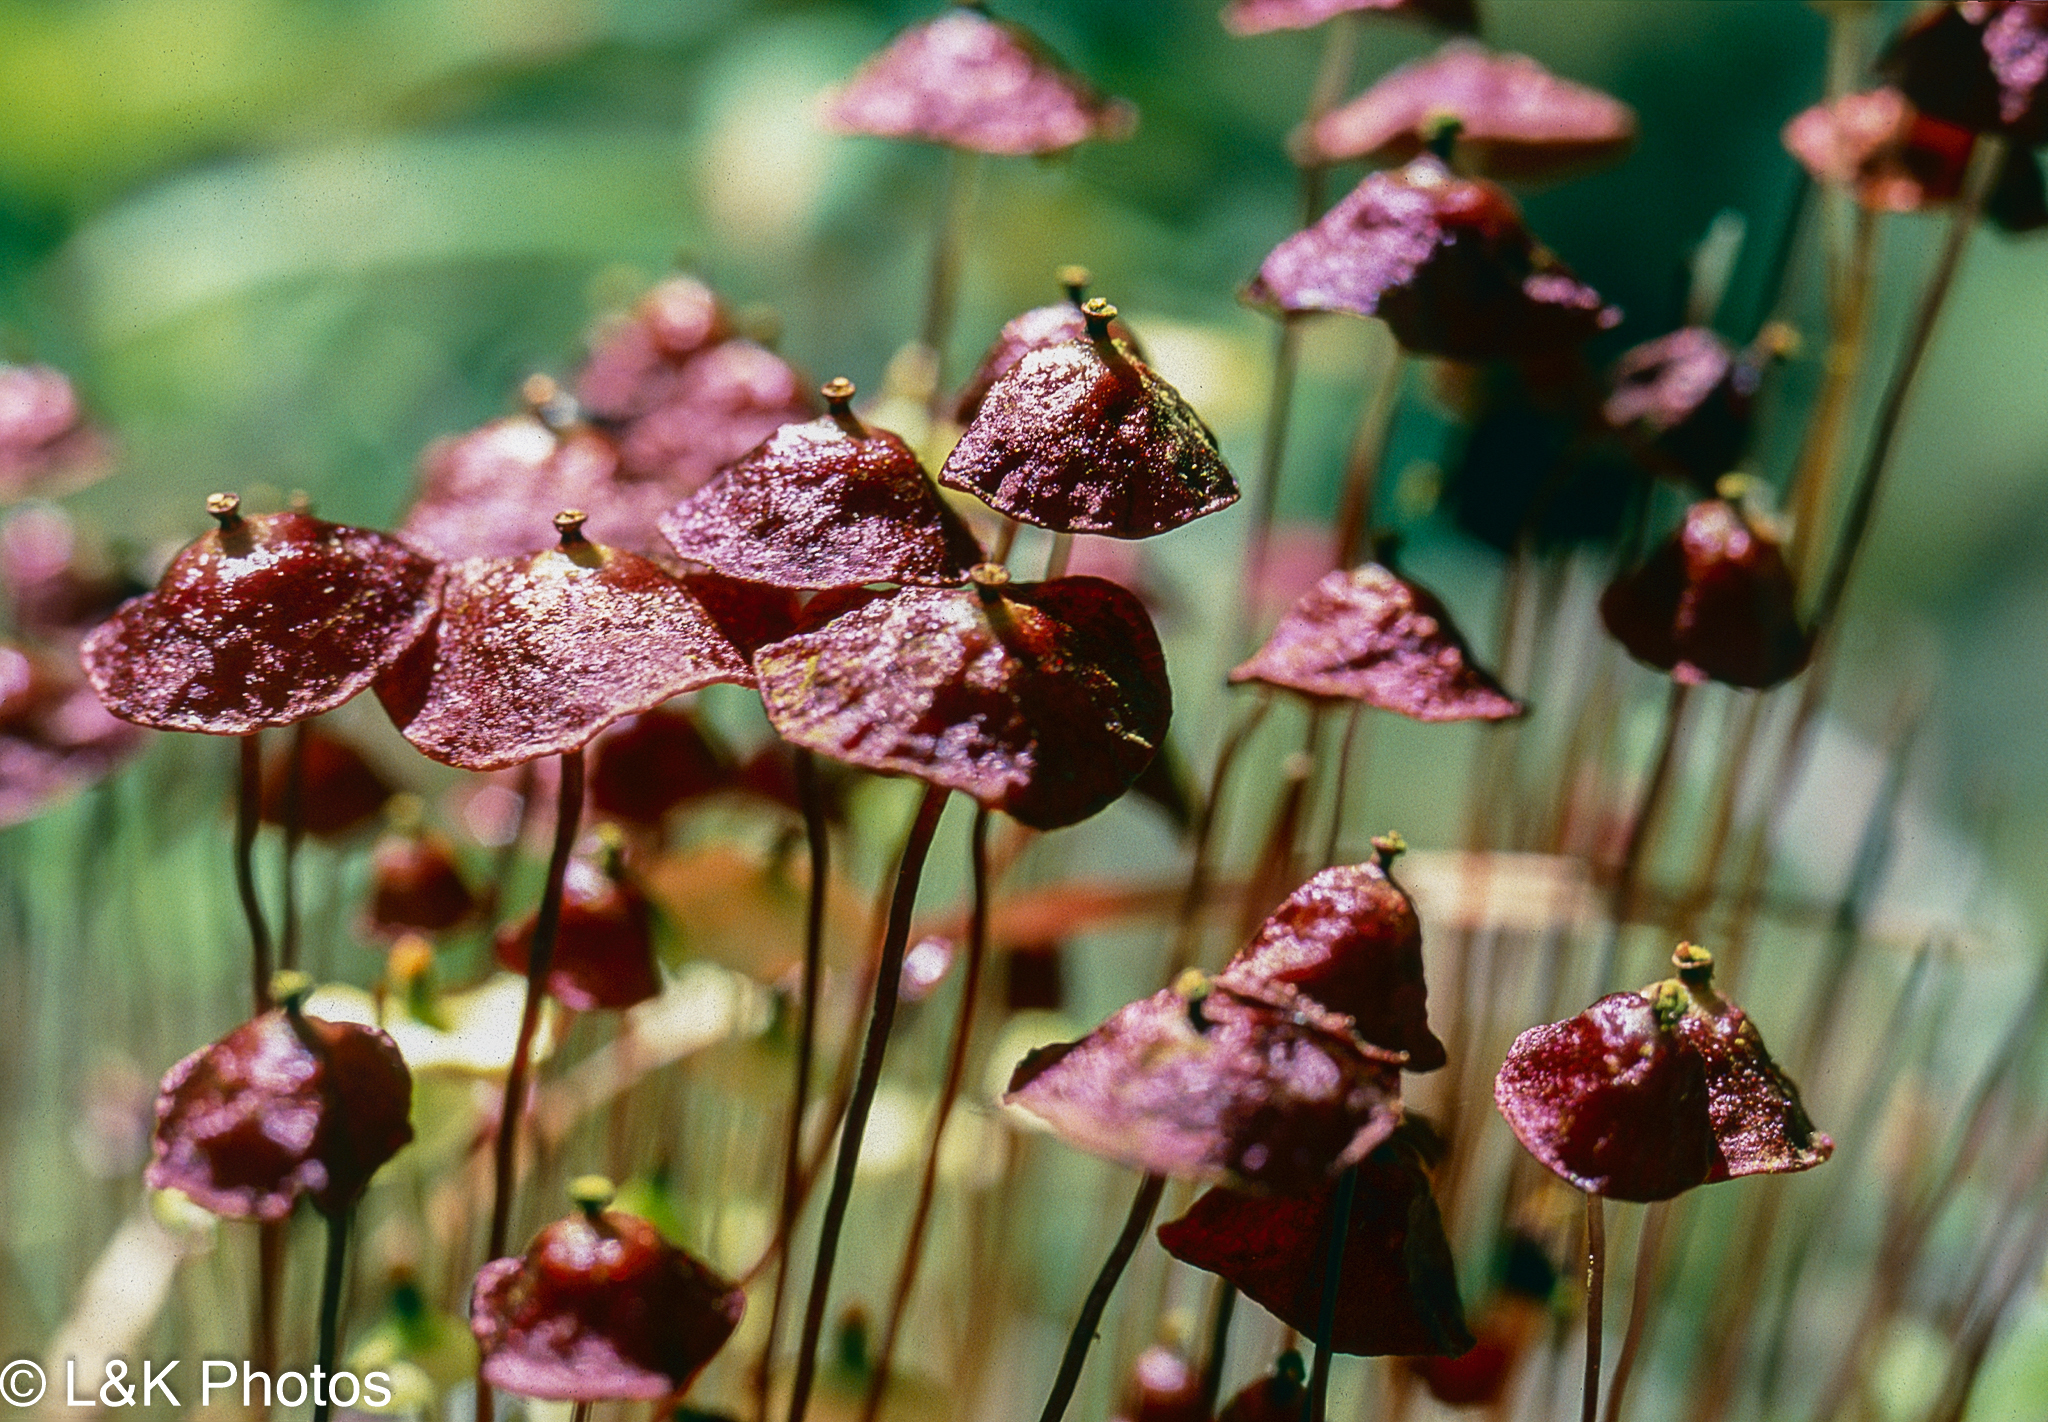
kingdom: Plantae
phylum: Bryophyta
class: Bryopsida
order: Splachnales
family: Splachnaceae
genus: Splachnum
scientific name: Splachnum rubrum
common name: Red dung moss
